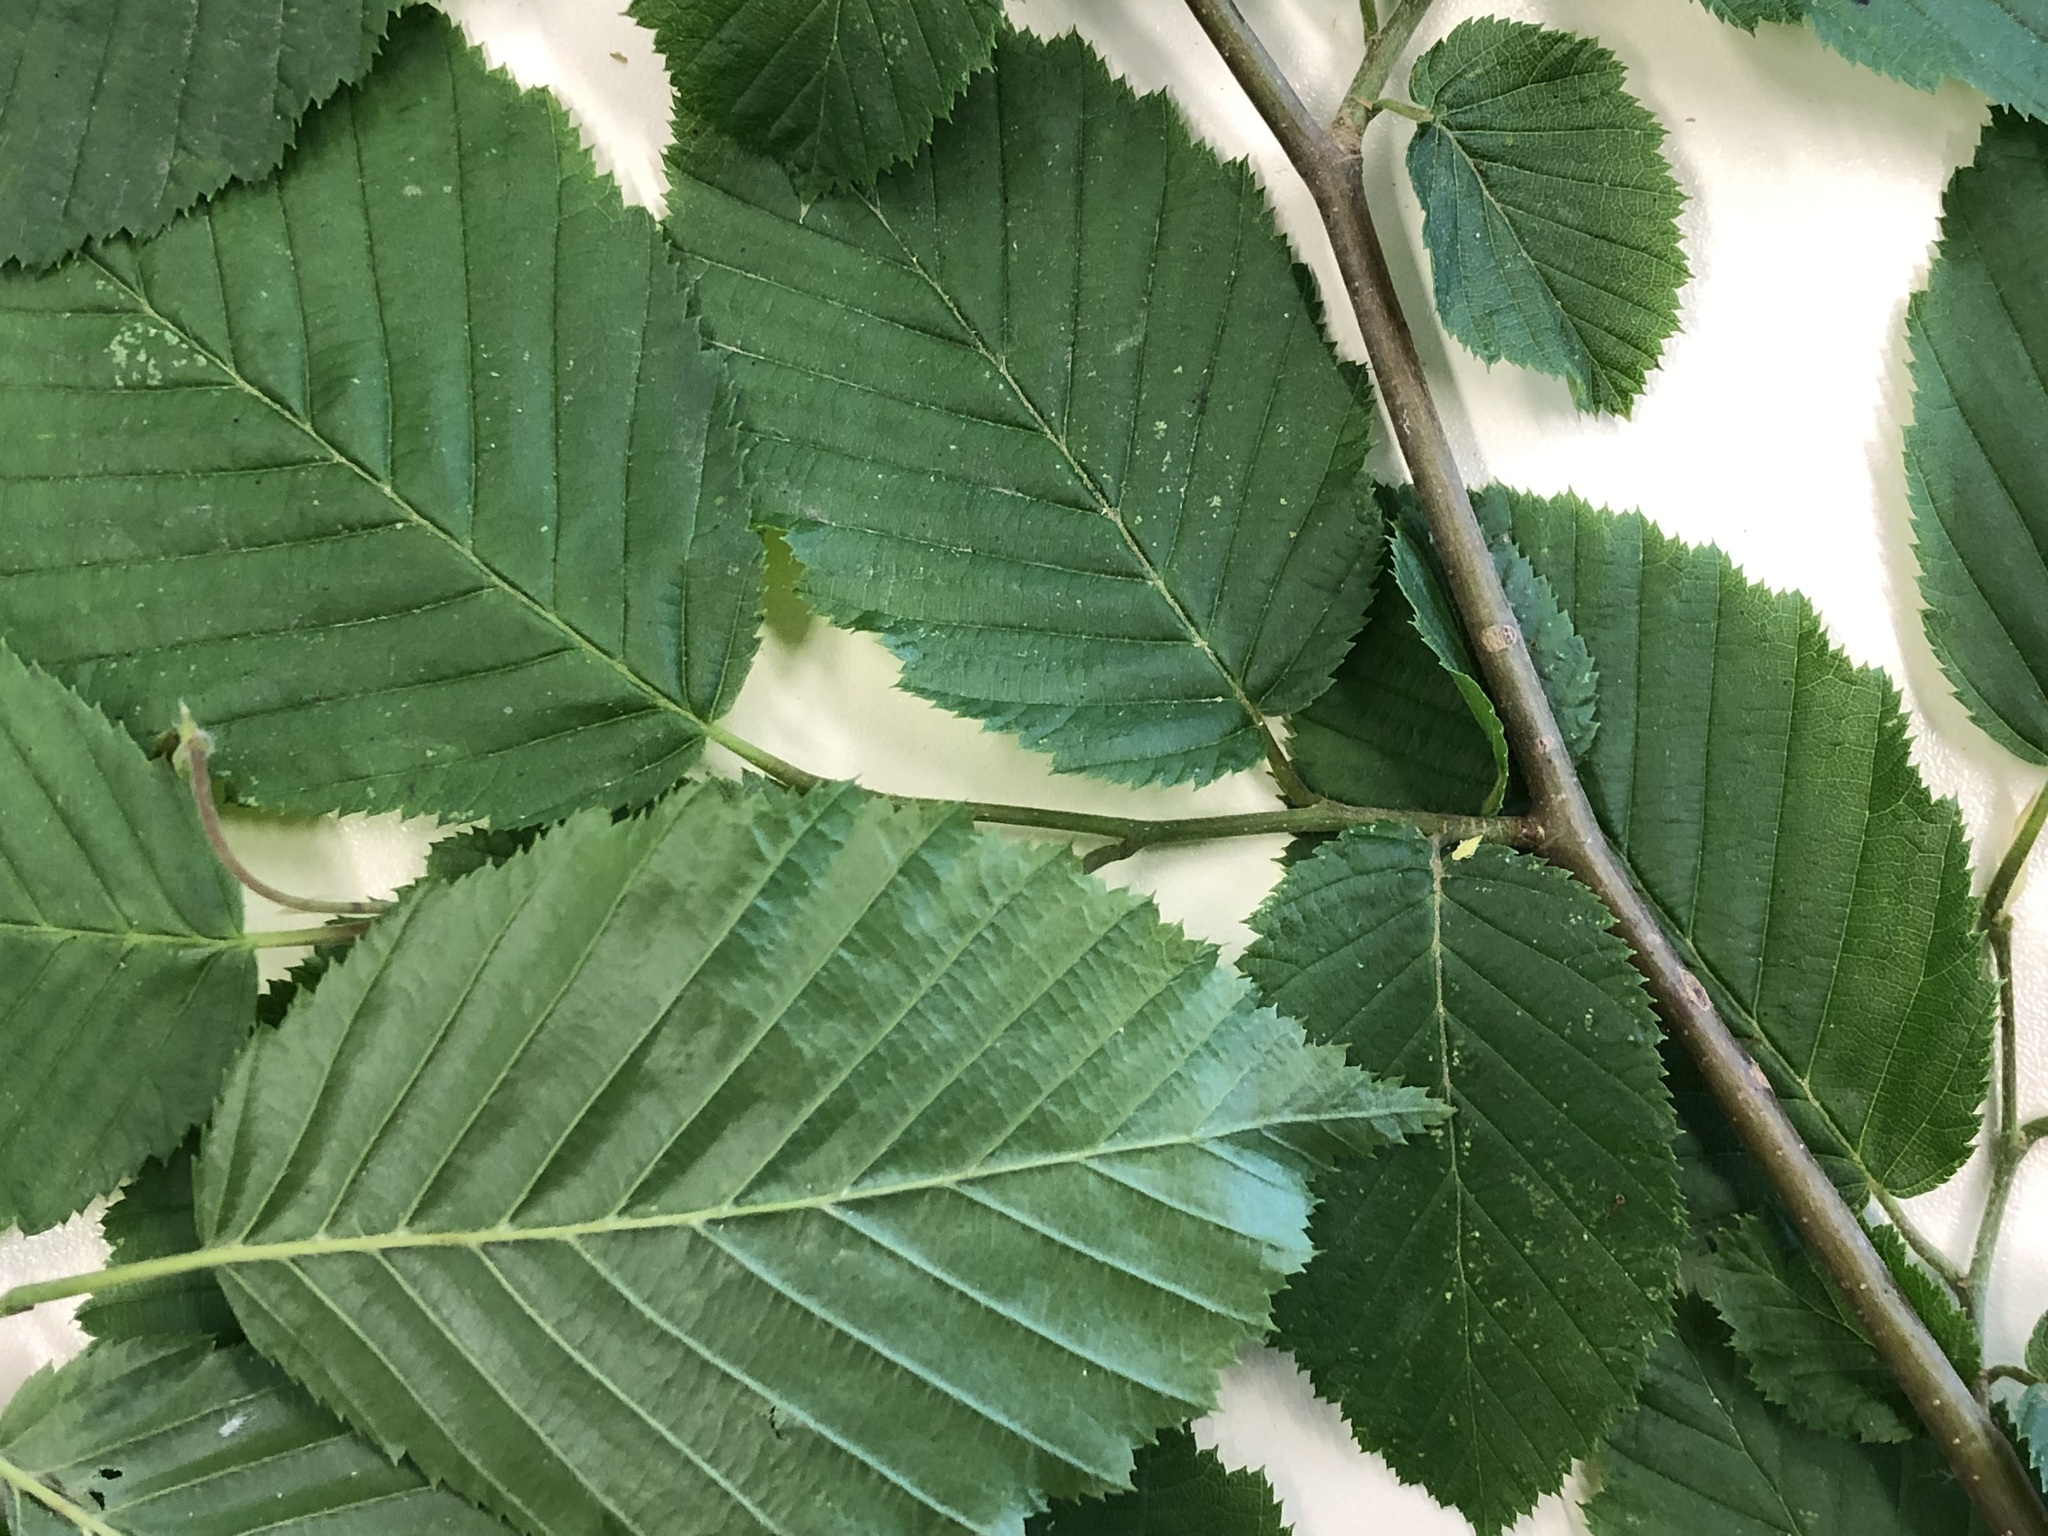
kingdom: Plantae
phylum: Tracheophyta
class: Magnoliopsida
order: Fagales
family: Betulaceae
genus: Carpinus
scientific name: Carpinus betulus
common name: Hornbeam
